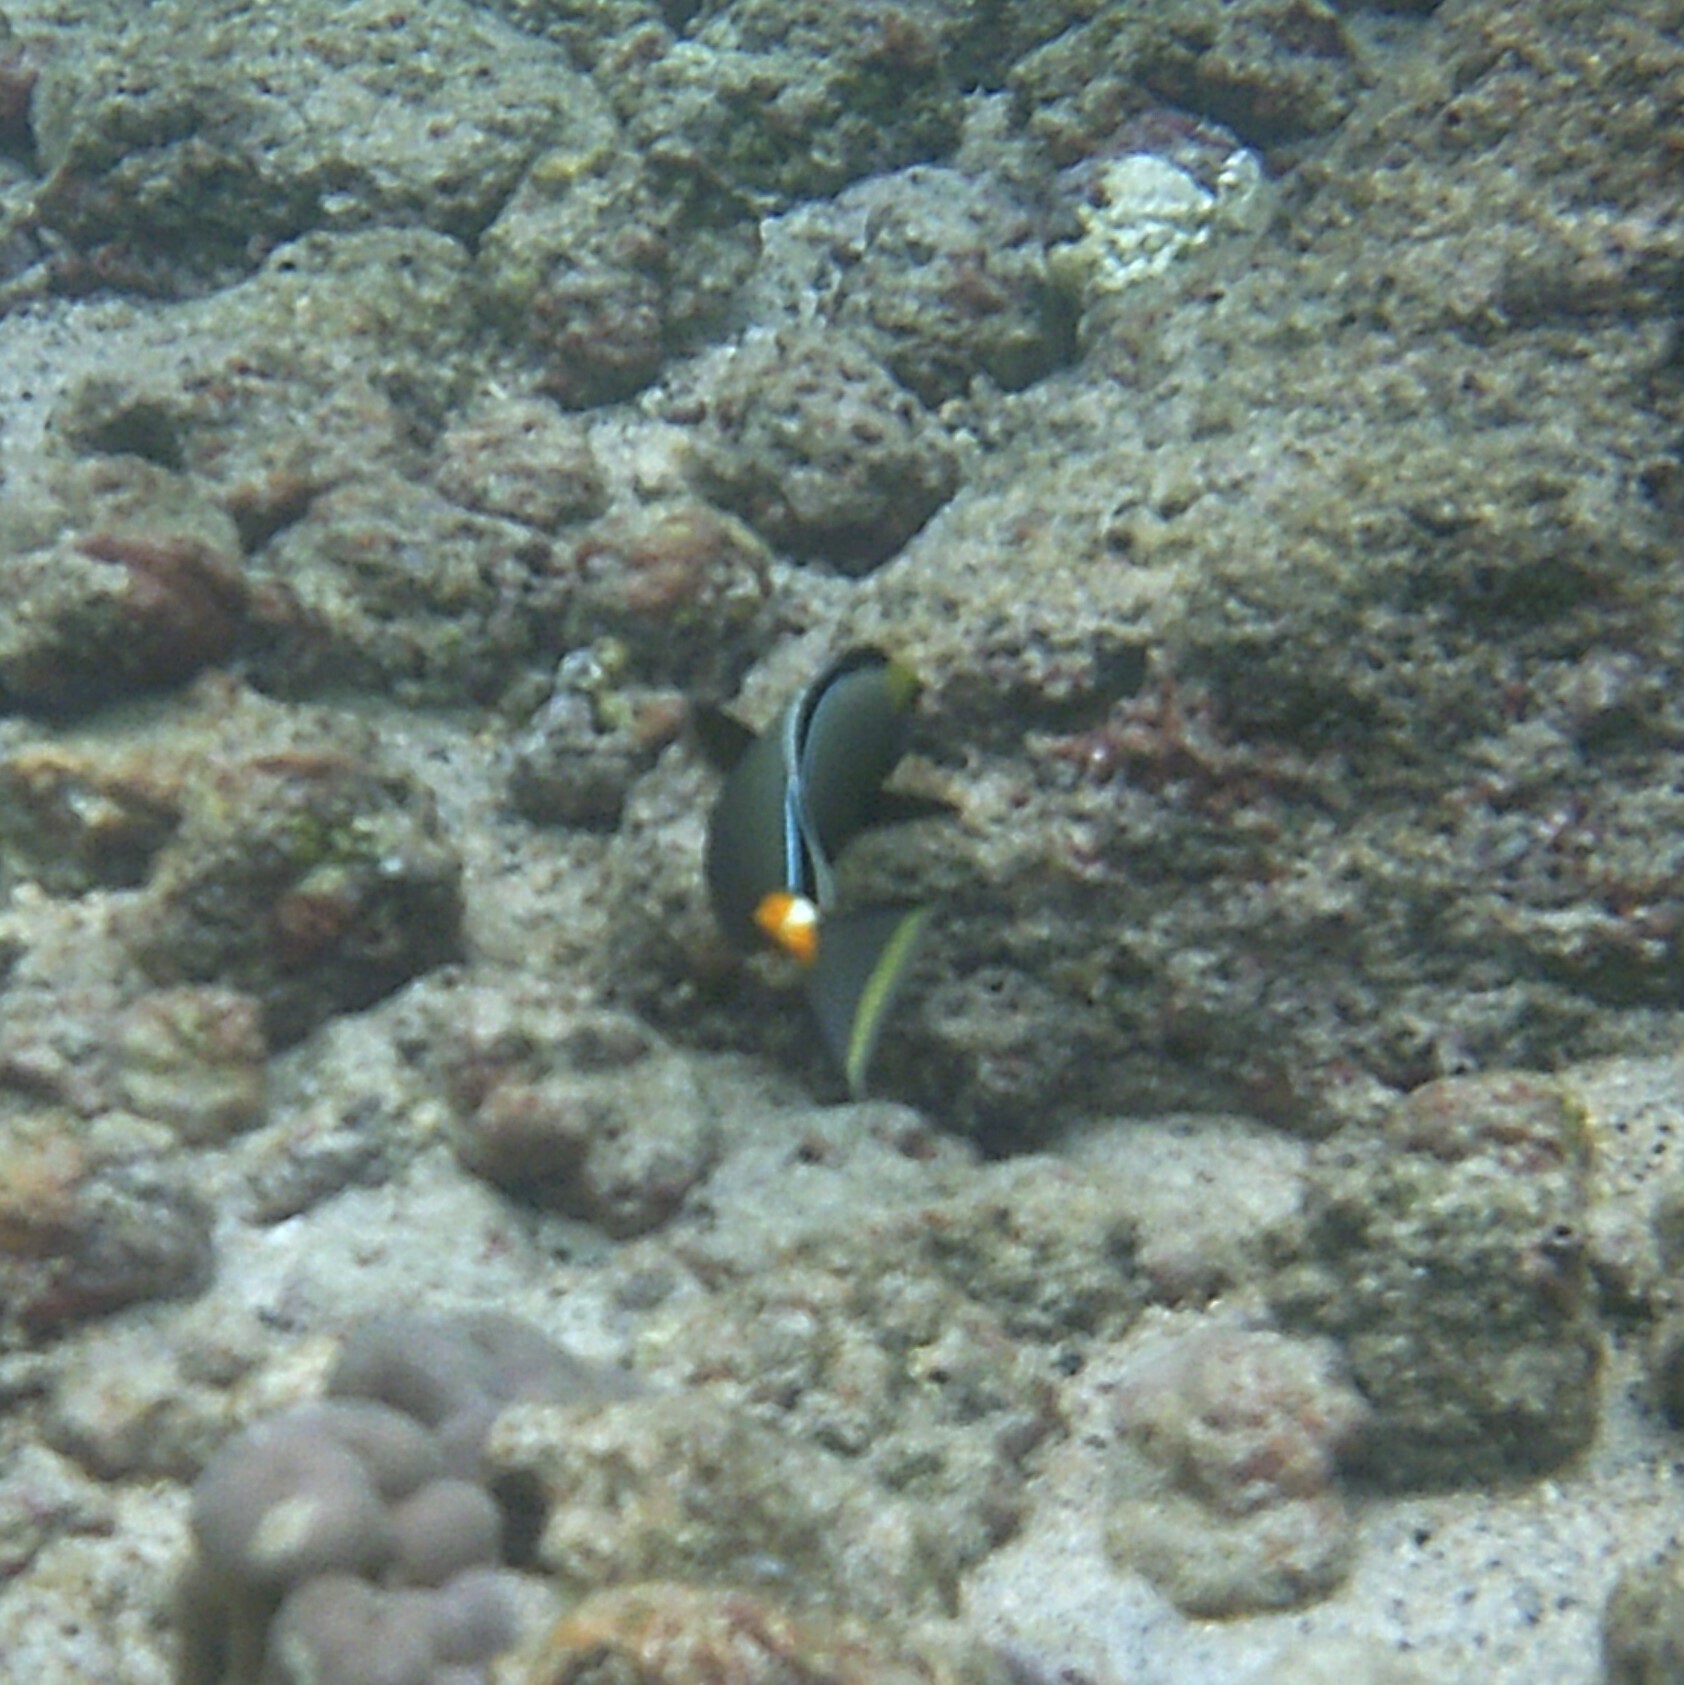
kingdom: Animalia
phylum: Chordata
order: Perciformes
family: Acanthuridae
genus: Naso
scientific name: Naso lituratus
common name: Orangespine unicornfish
